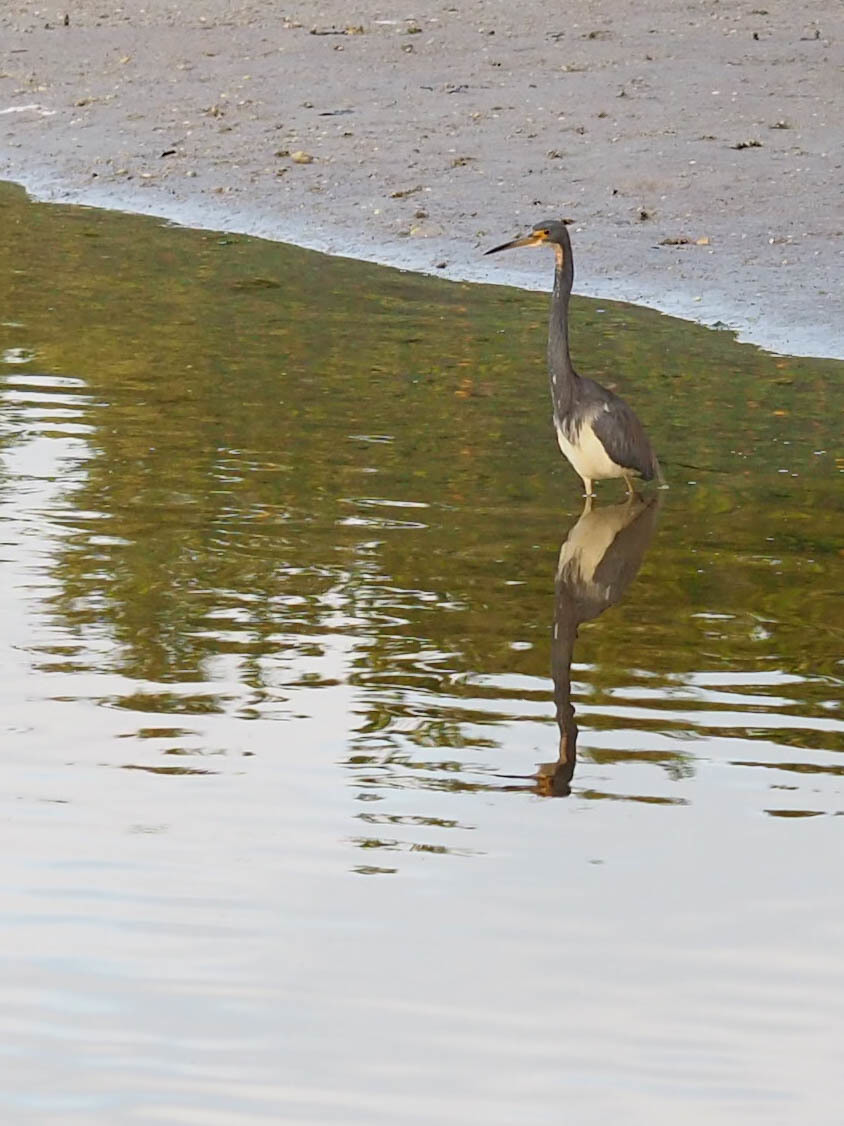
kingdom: Animalia
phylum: Chordata
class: Aves
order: Pelecaniformes
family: Ardeidae
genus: Egretta
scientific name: Egretta tricolor
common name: Tricolored heron
